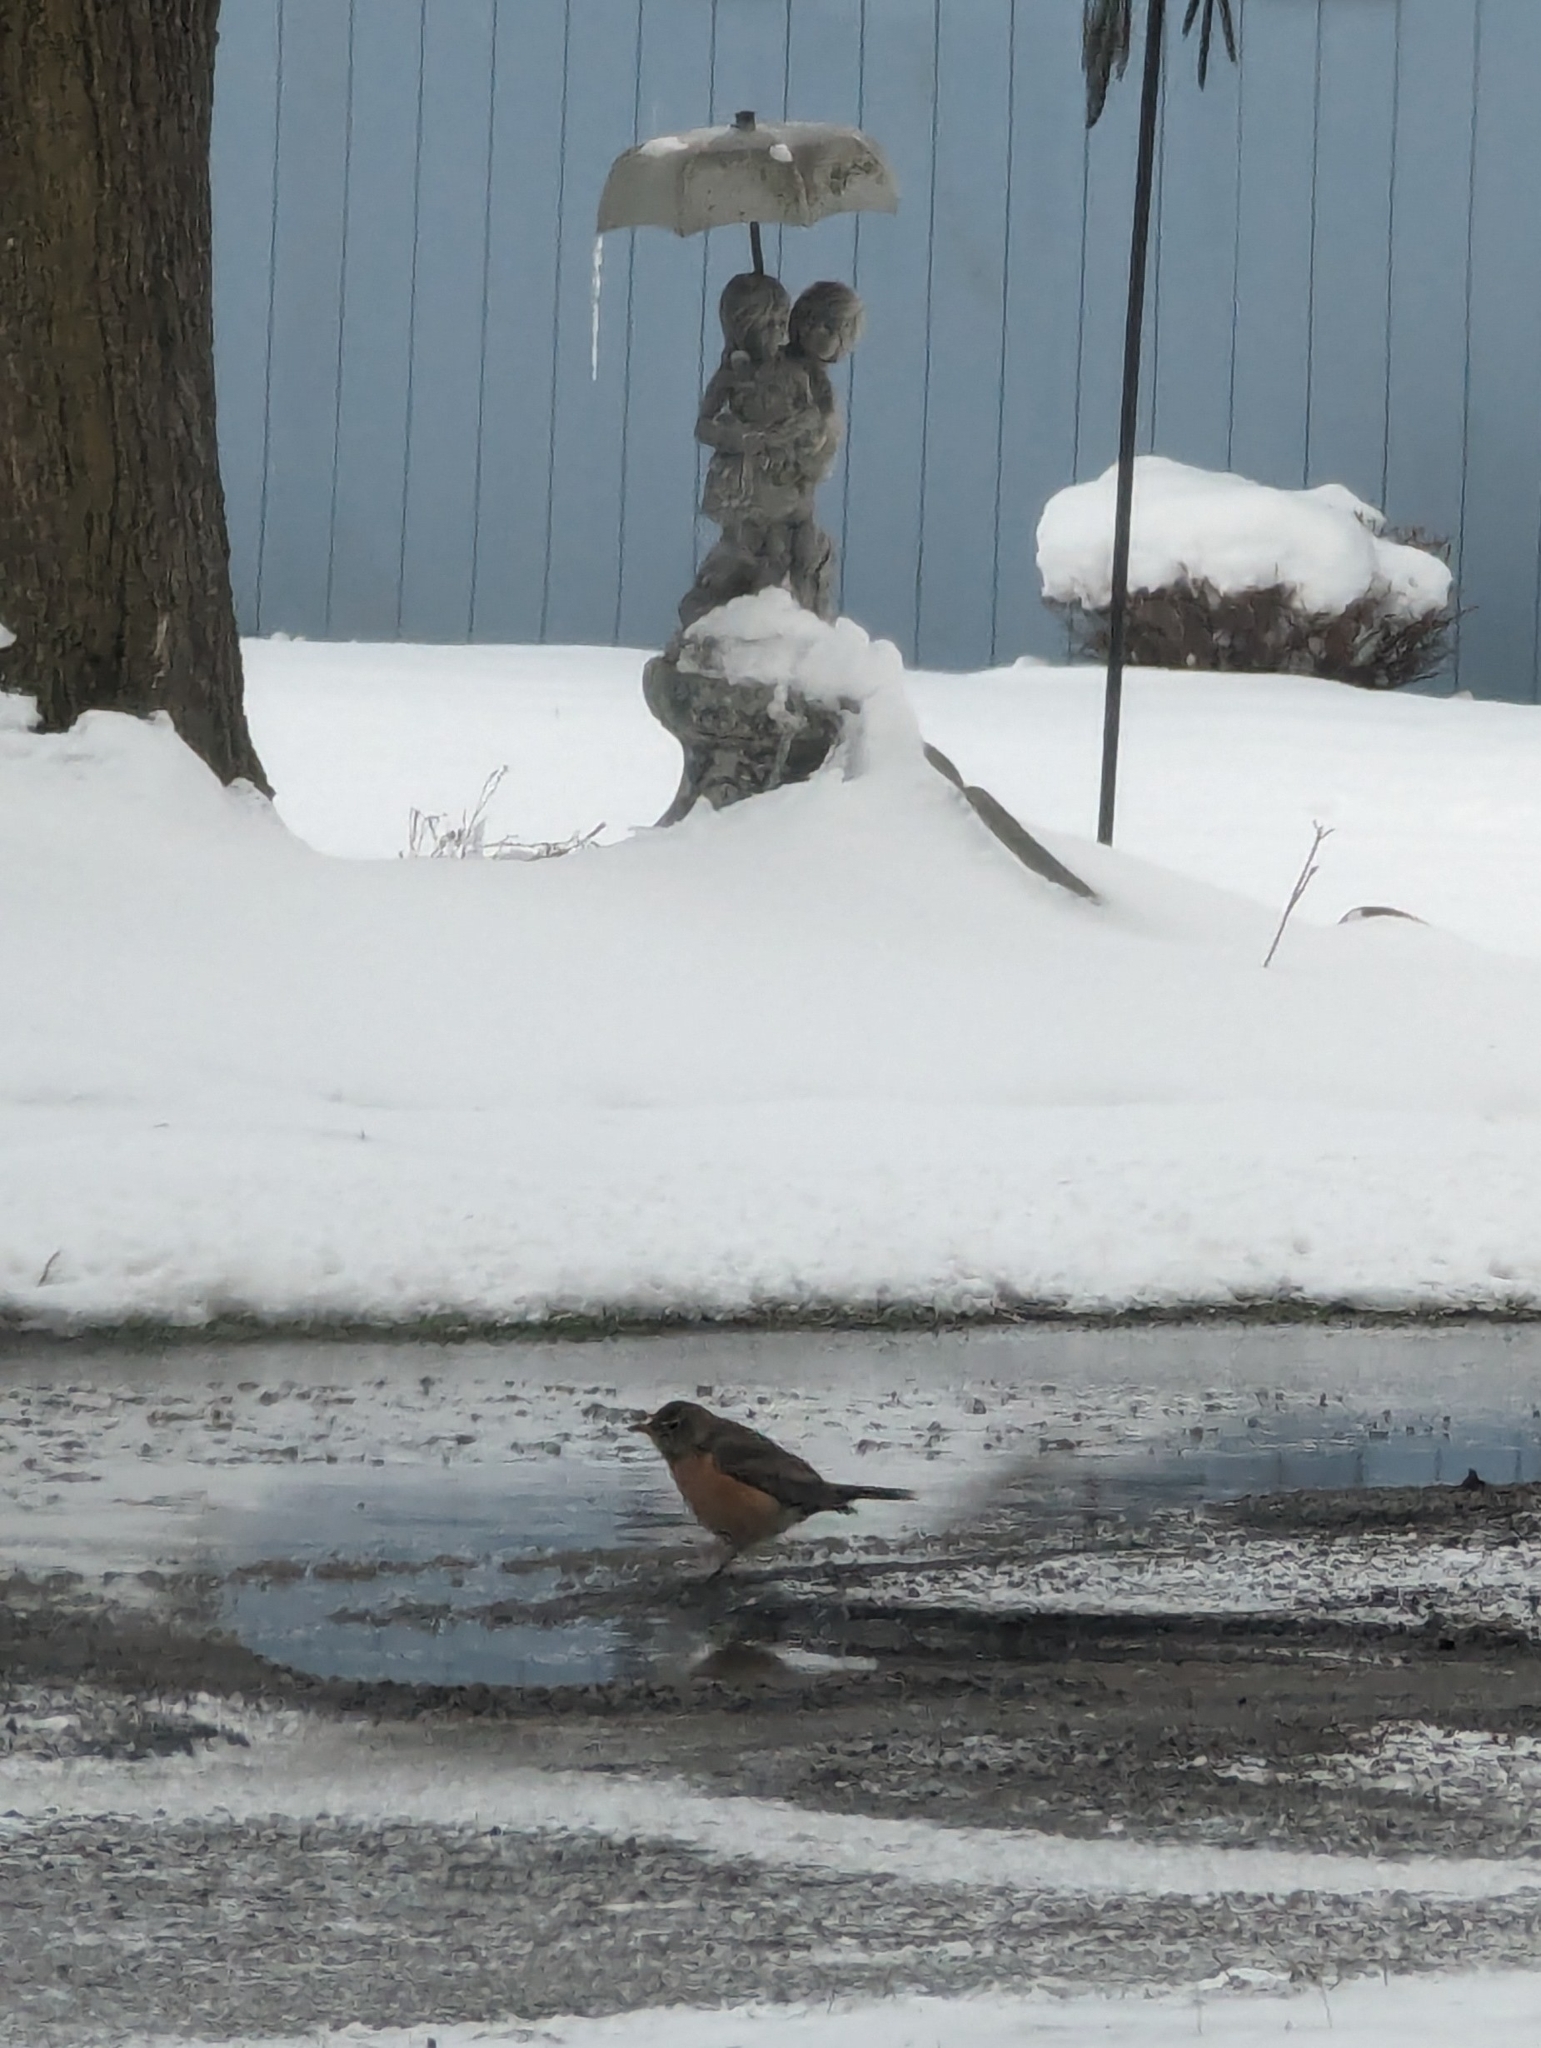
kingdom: Animalia
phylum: Chordata
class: Aves
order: Passeriformes
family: Turdidae
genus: Turdus
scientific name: Turdus migratorius
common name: American robin
